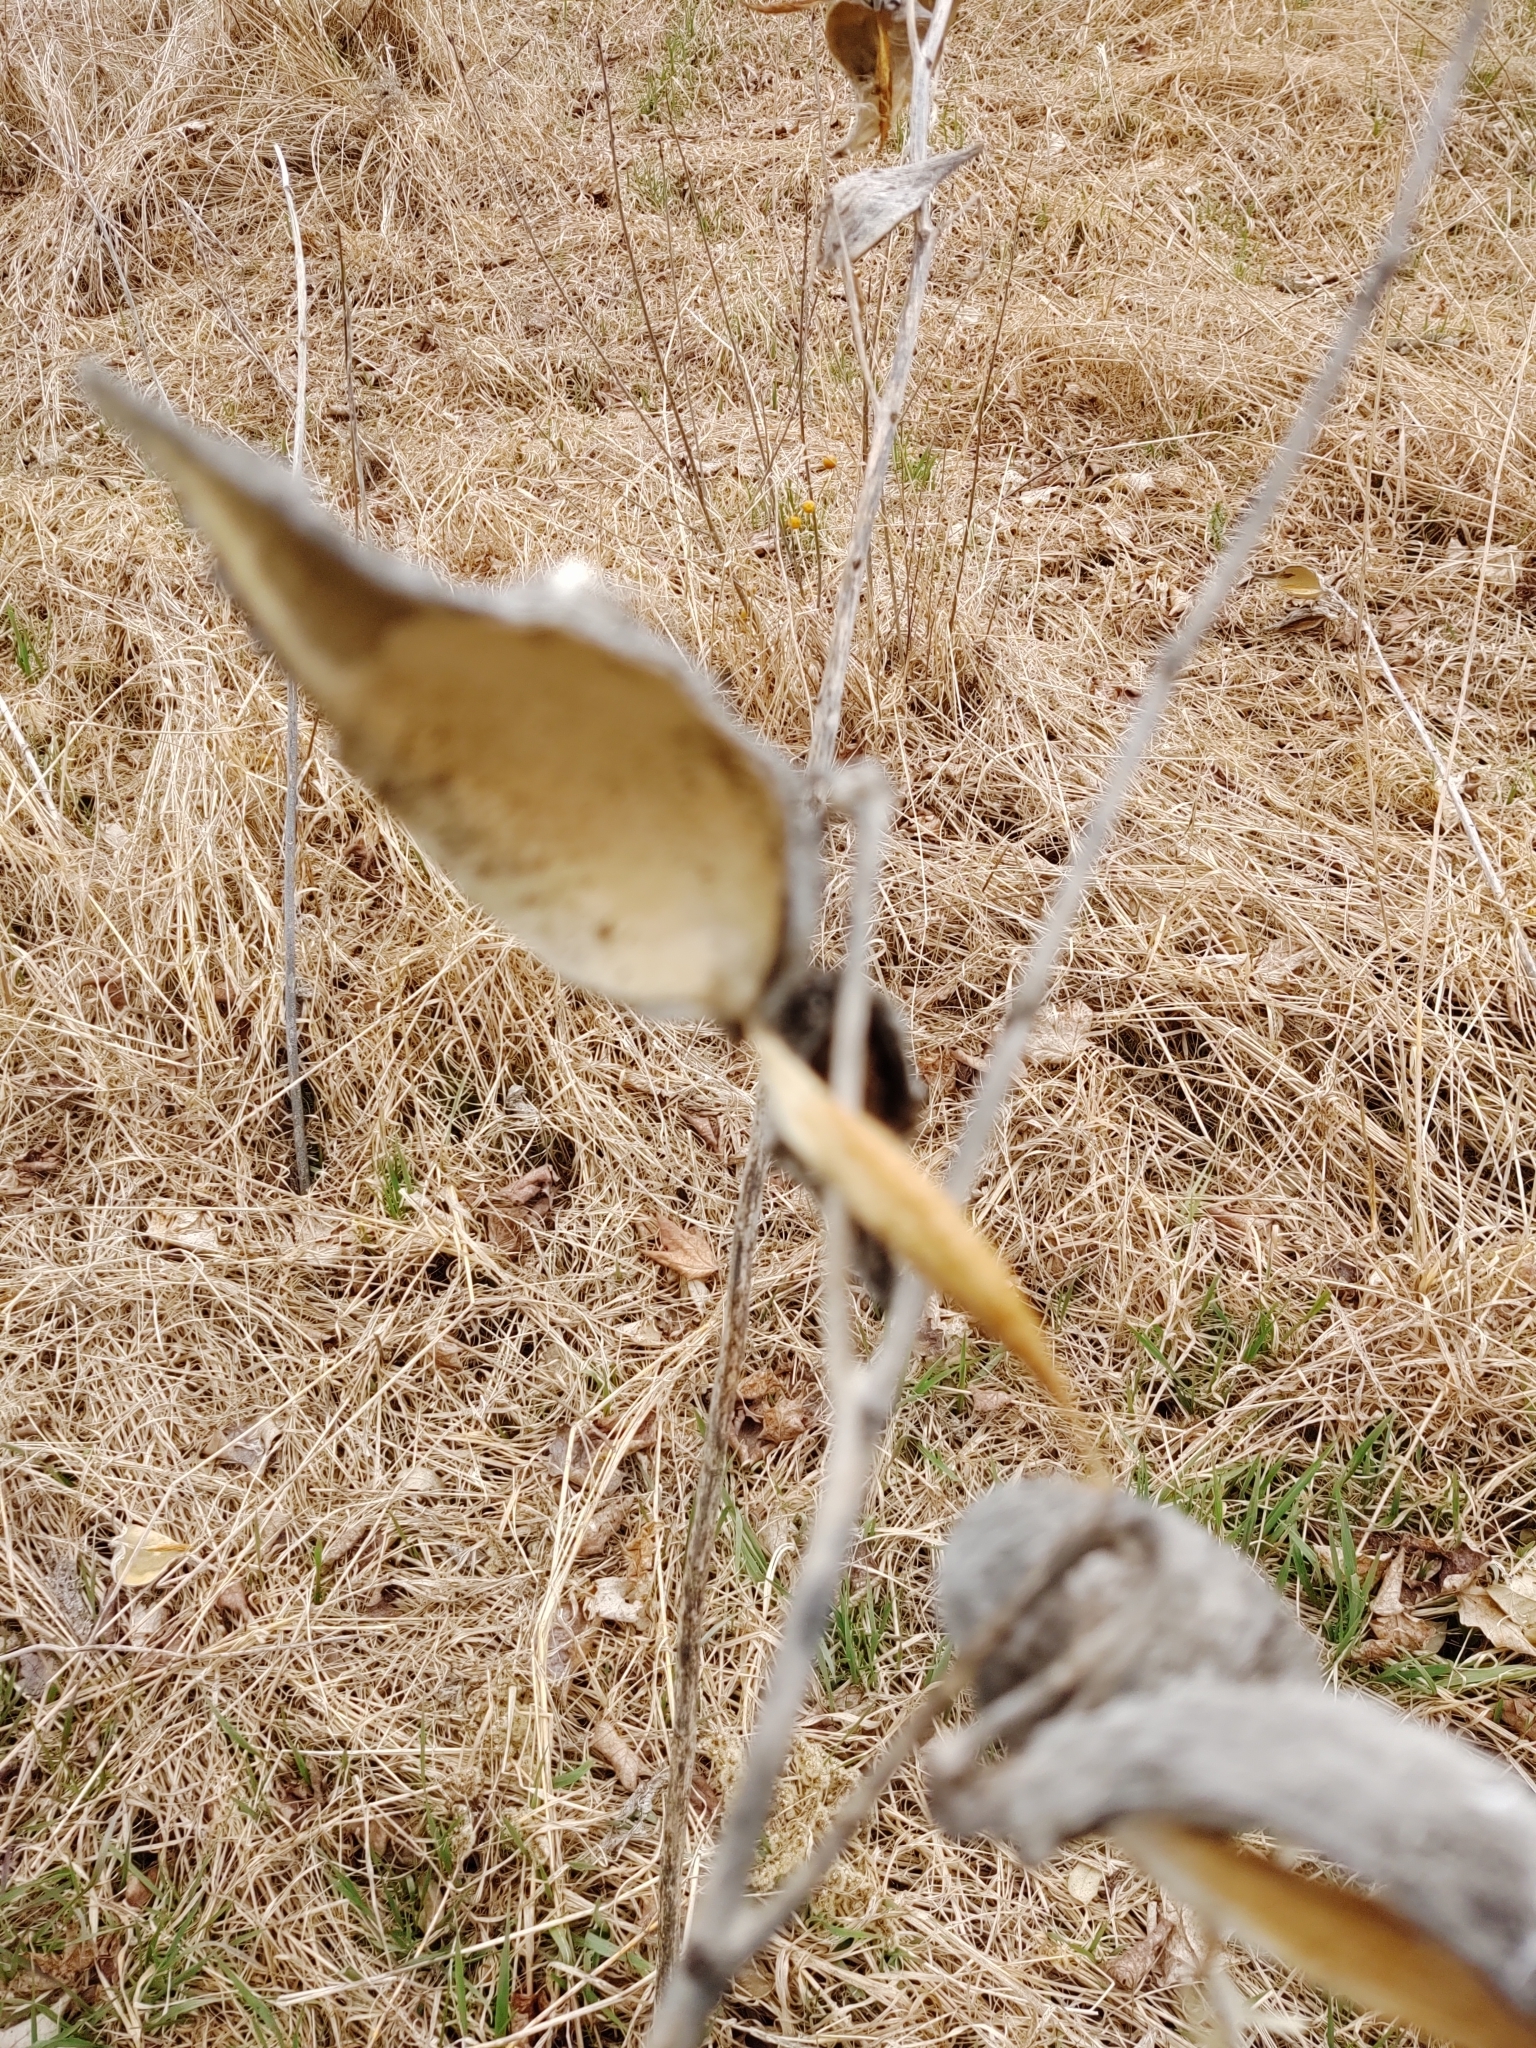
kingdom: Plantae
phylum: Tracheophyta
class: Magnoliopsida
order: Gentianales
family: Apocynaceae
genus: Asclepias
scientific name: Asclepias syriaca
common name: Common milkweed
